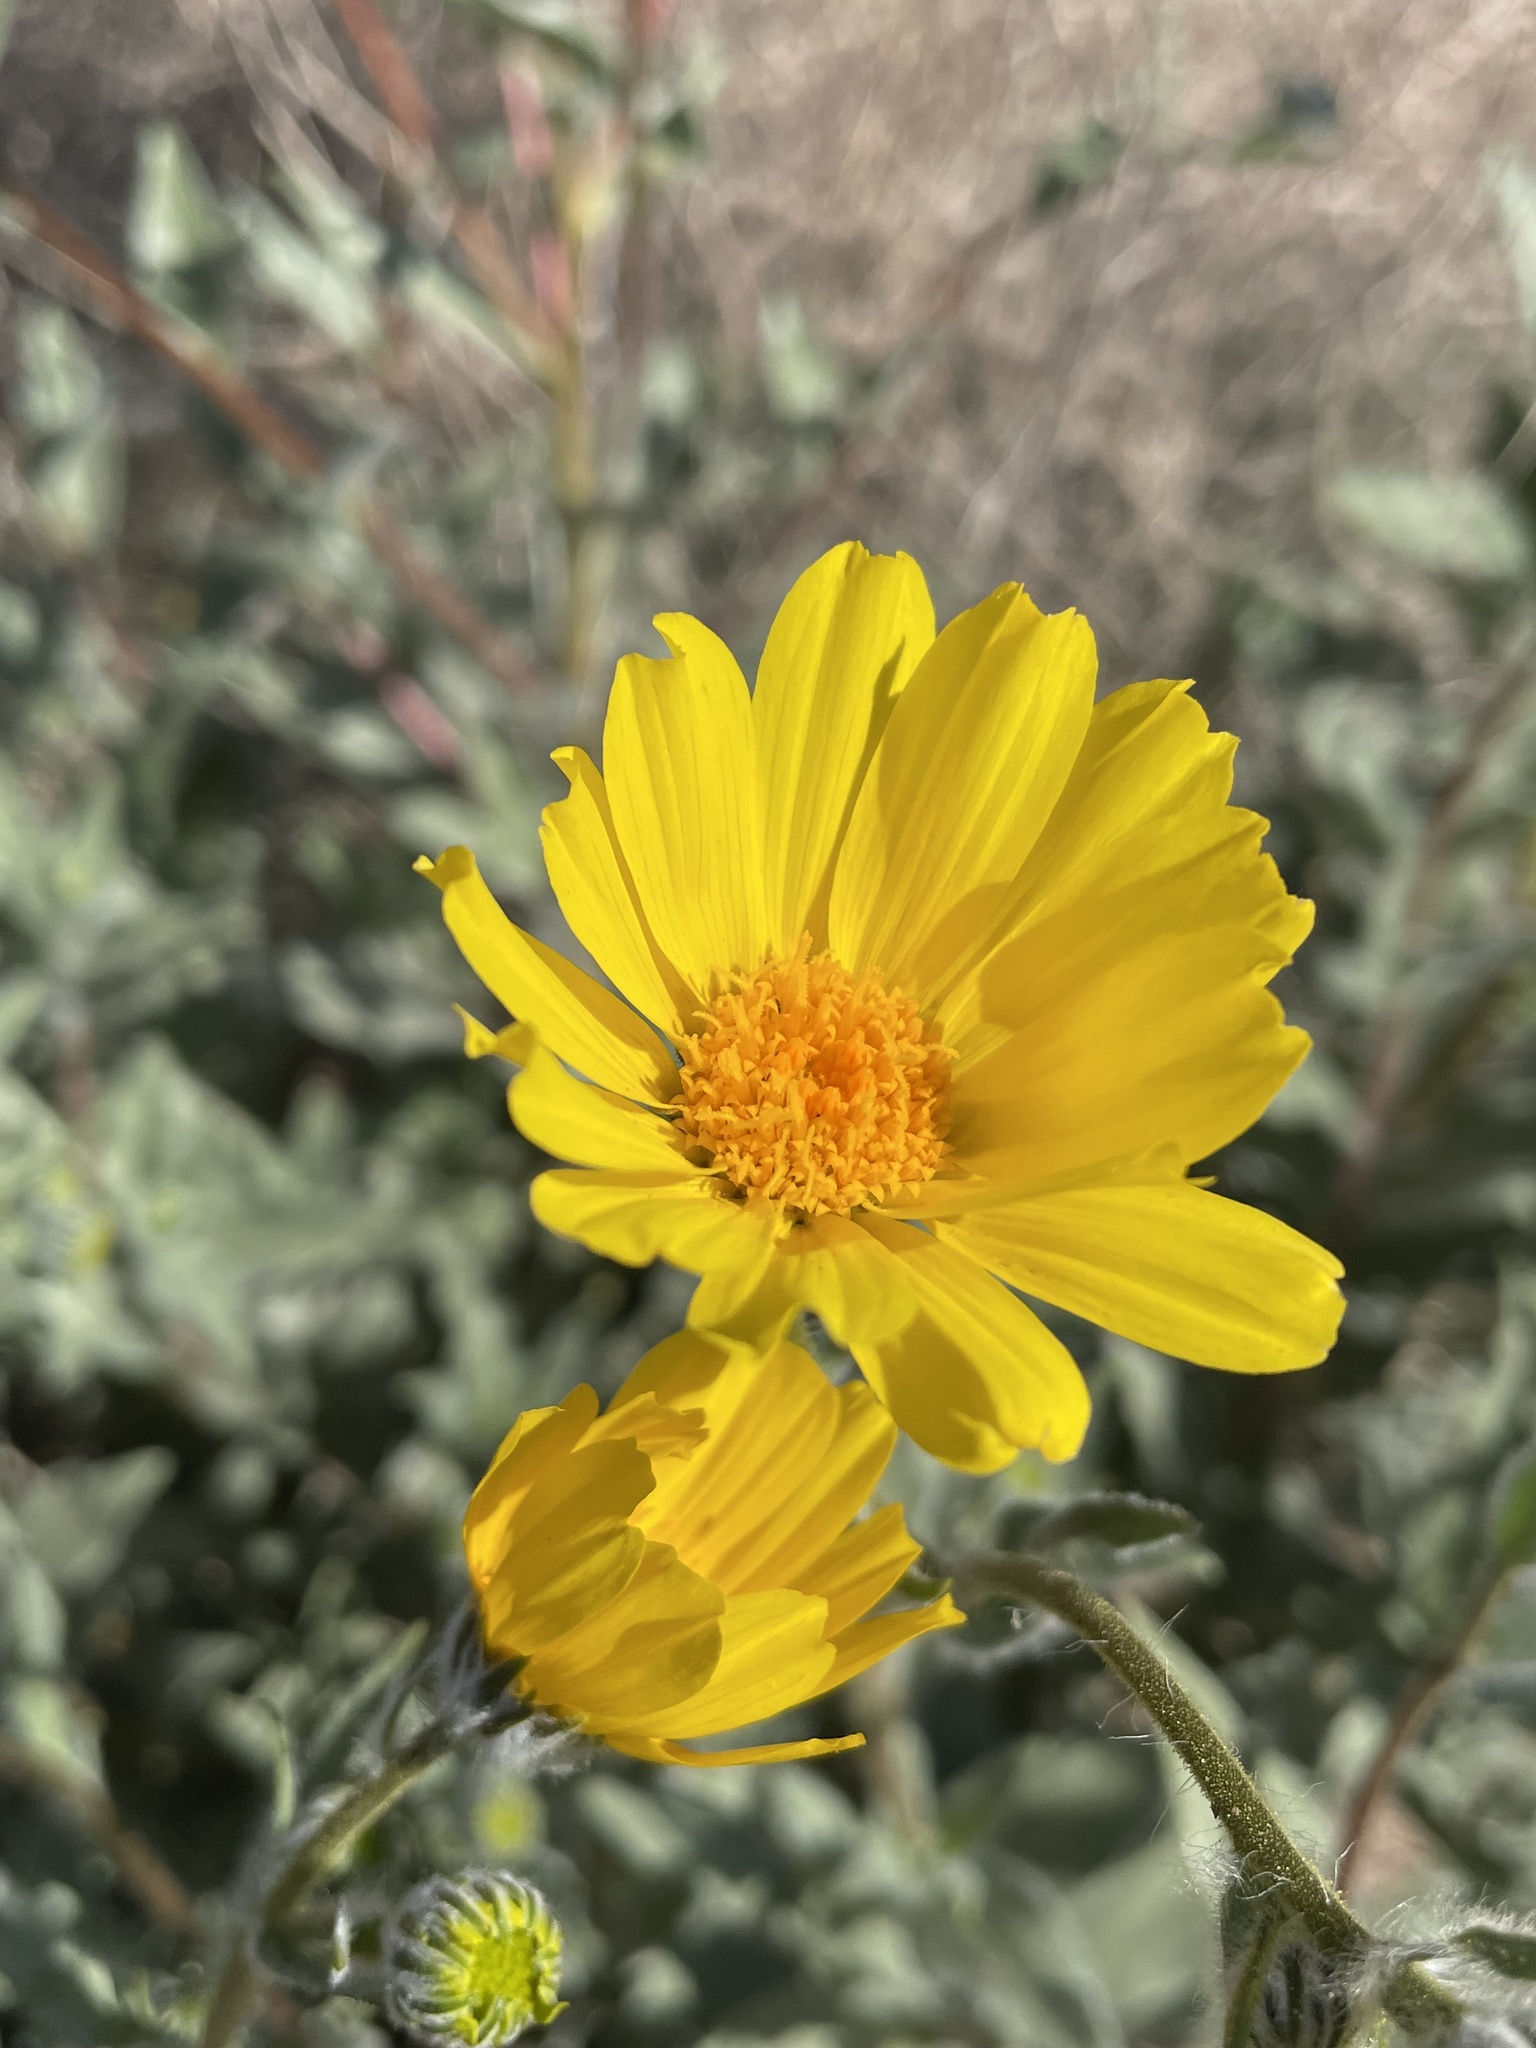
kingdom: Plantae
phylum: Tracheophyta
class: Magnoliopsida
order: Asterales
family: Asteraceae
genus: Geraea
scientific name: Geraea canescens
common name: Desert-gold
